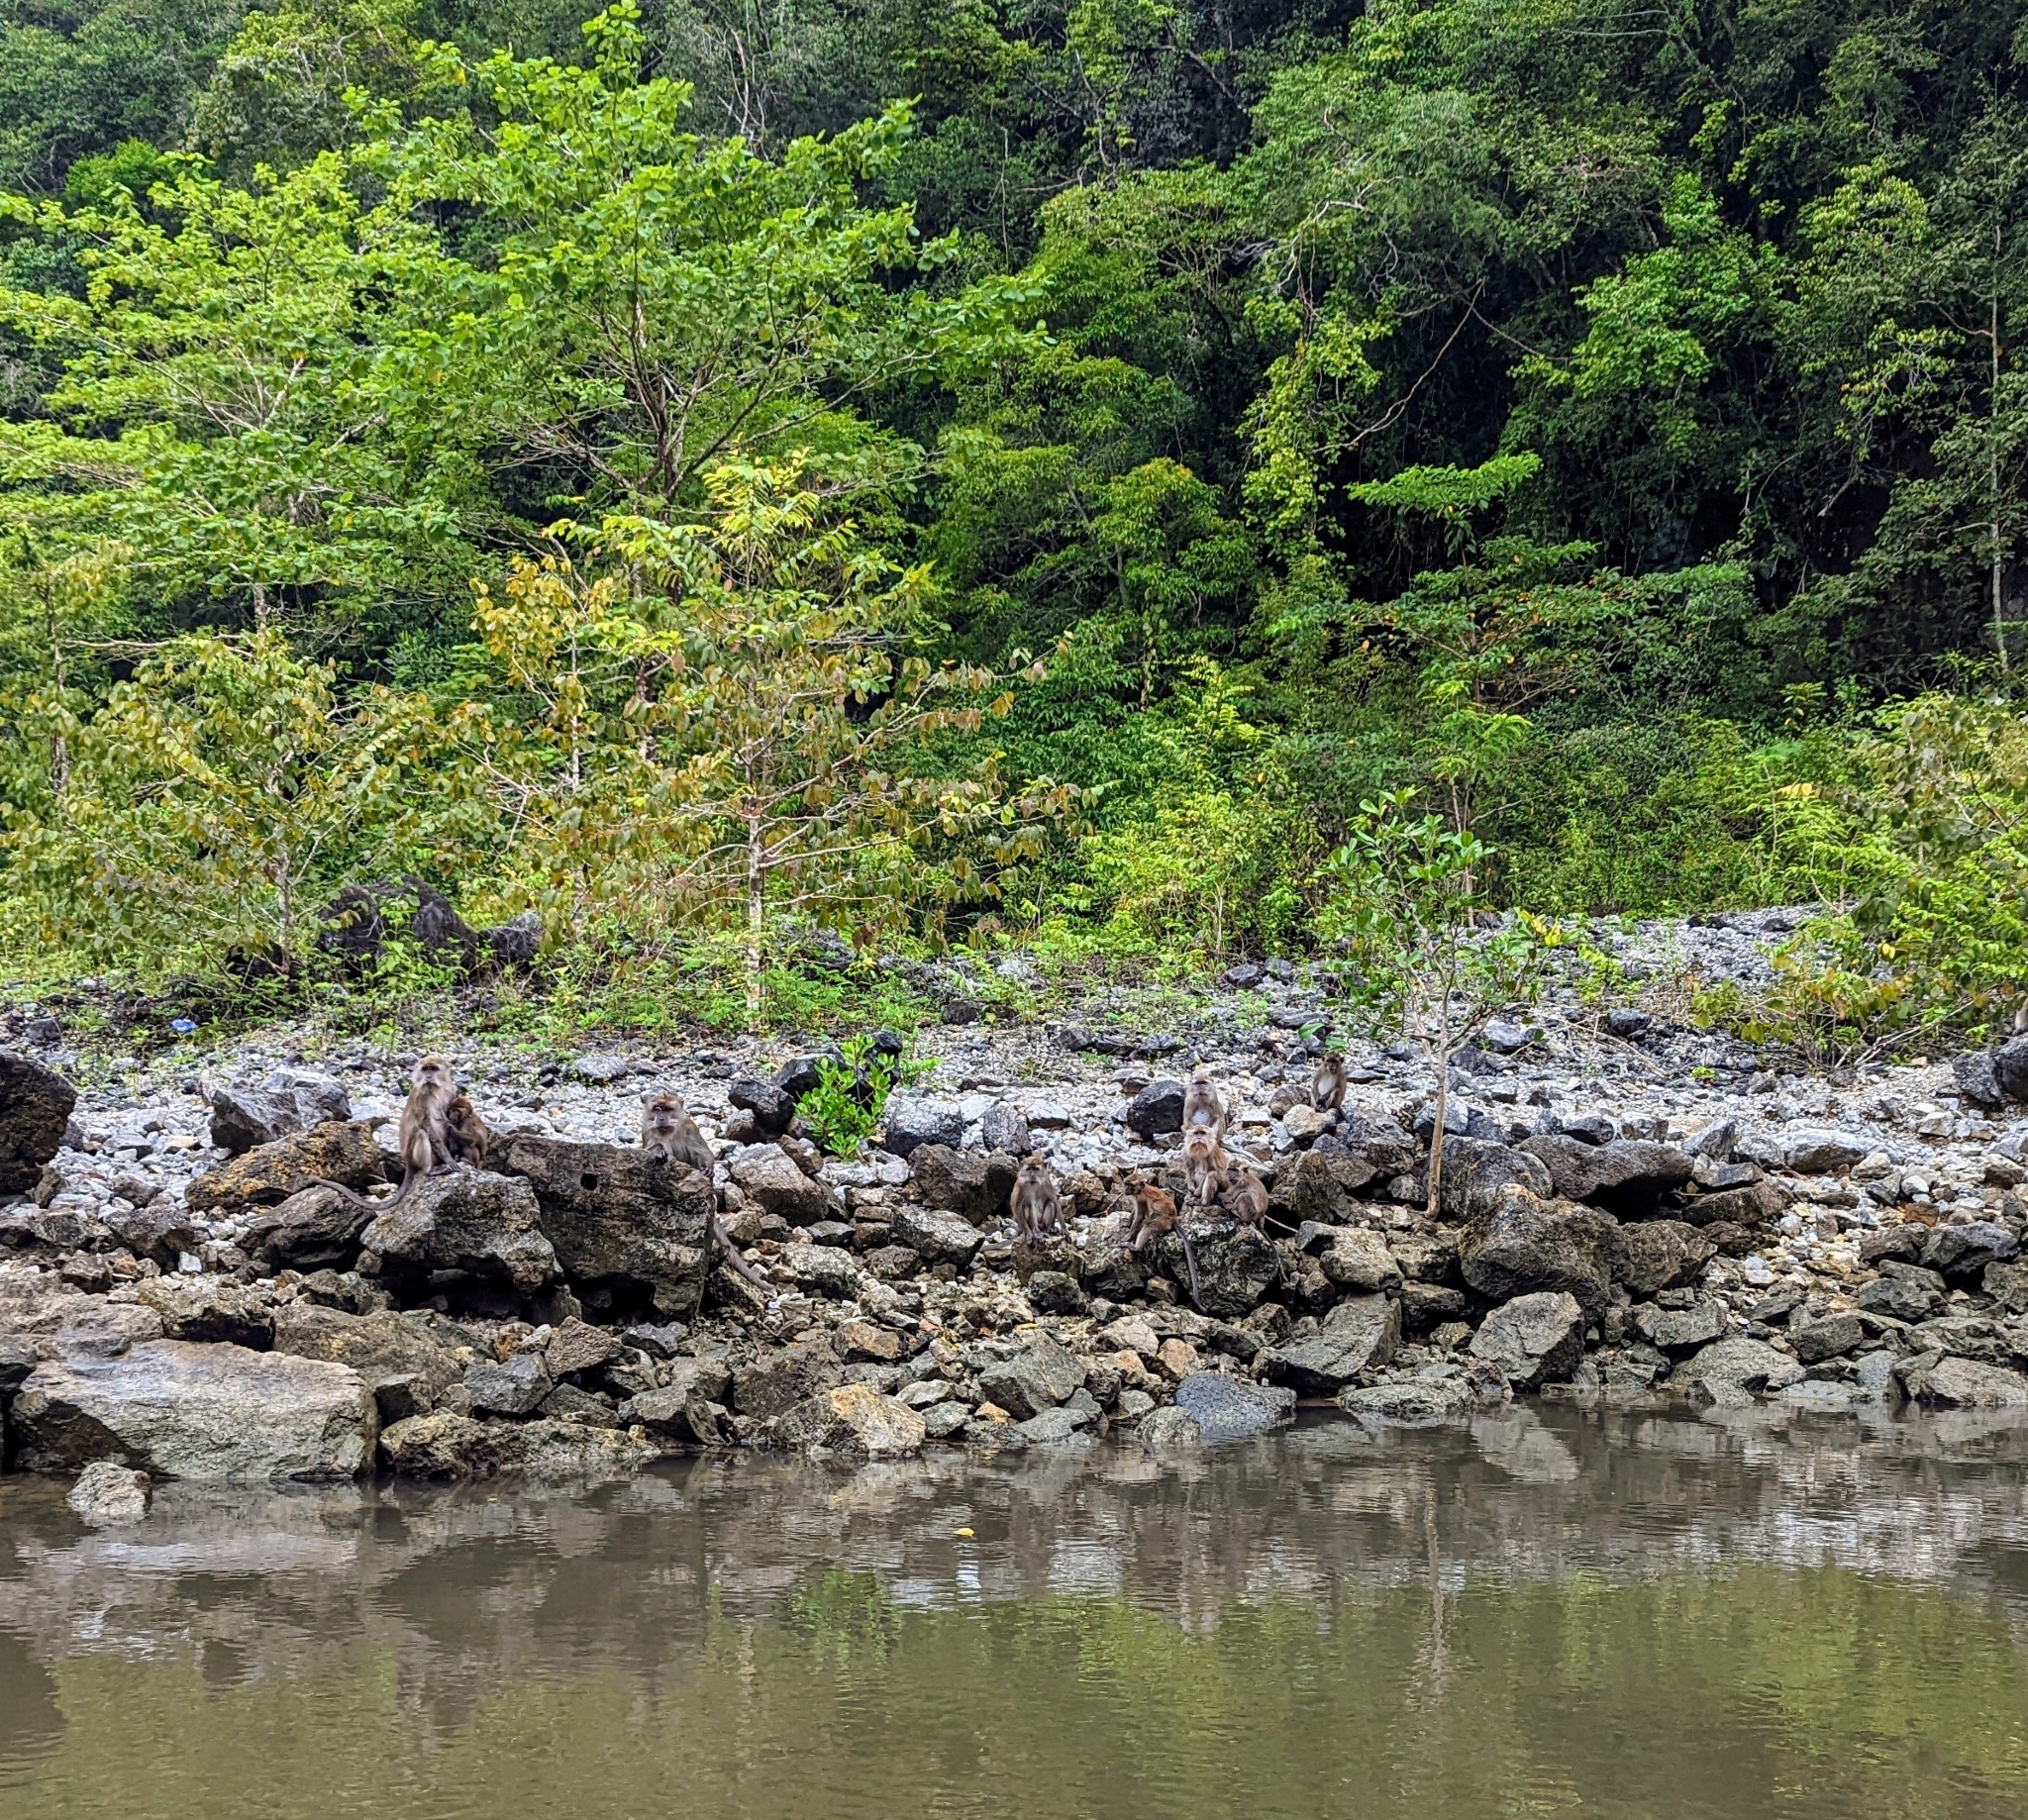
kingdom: Animalia
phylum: Chordata
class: Mammalia
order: Primates
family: Cercopithecidae
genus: Macaca
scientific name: Macaca fascicularis
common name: Crab-eating macaque
